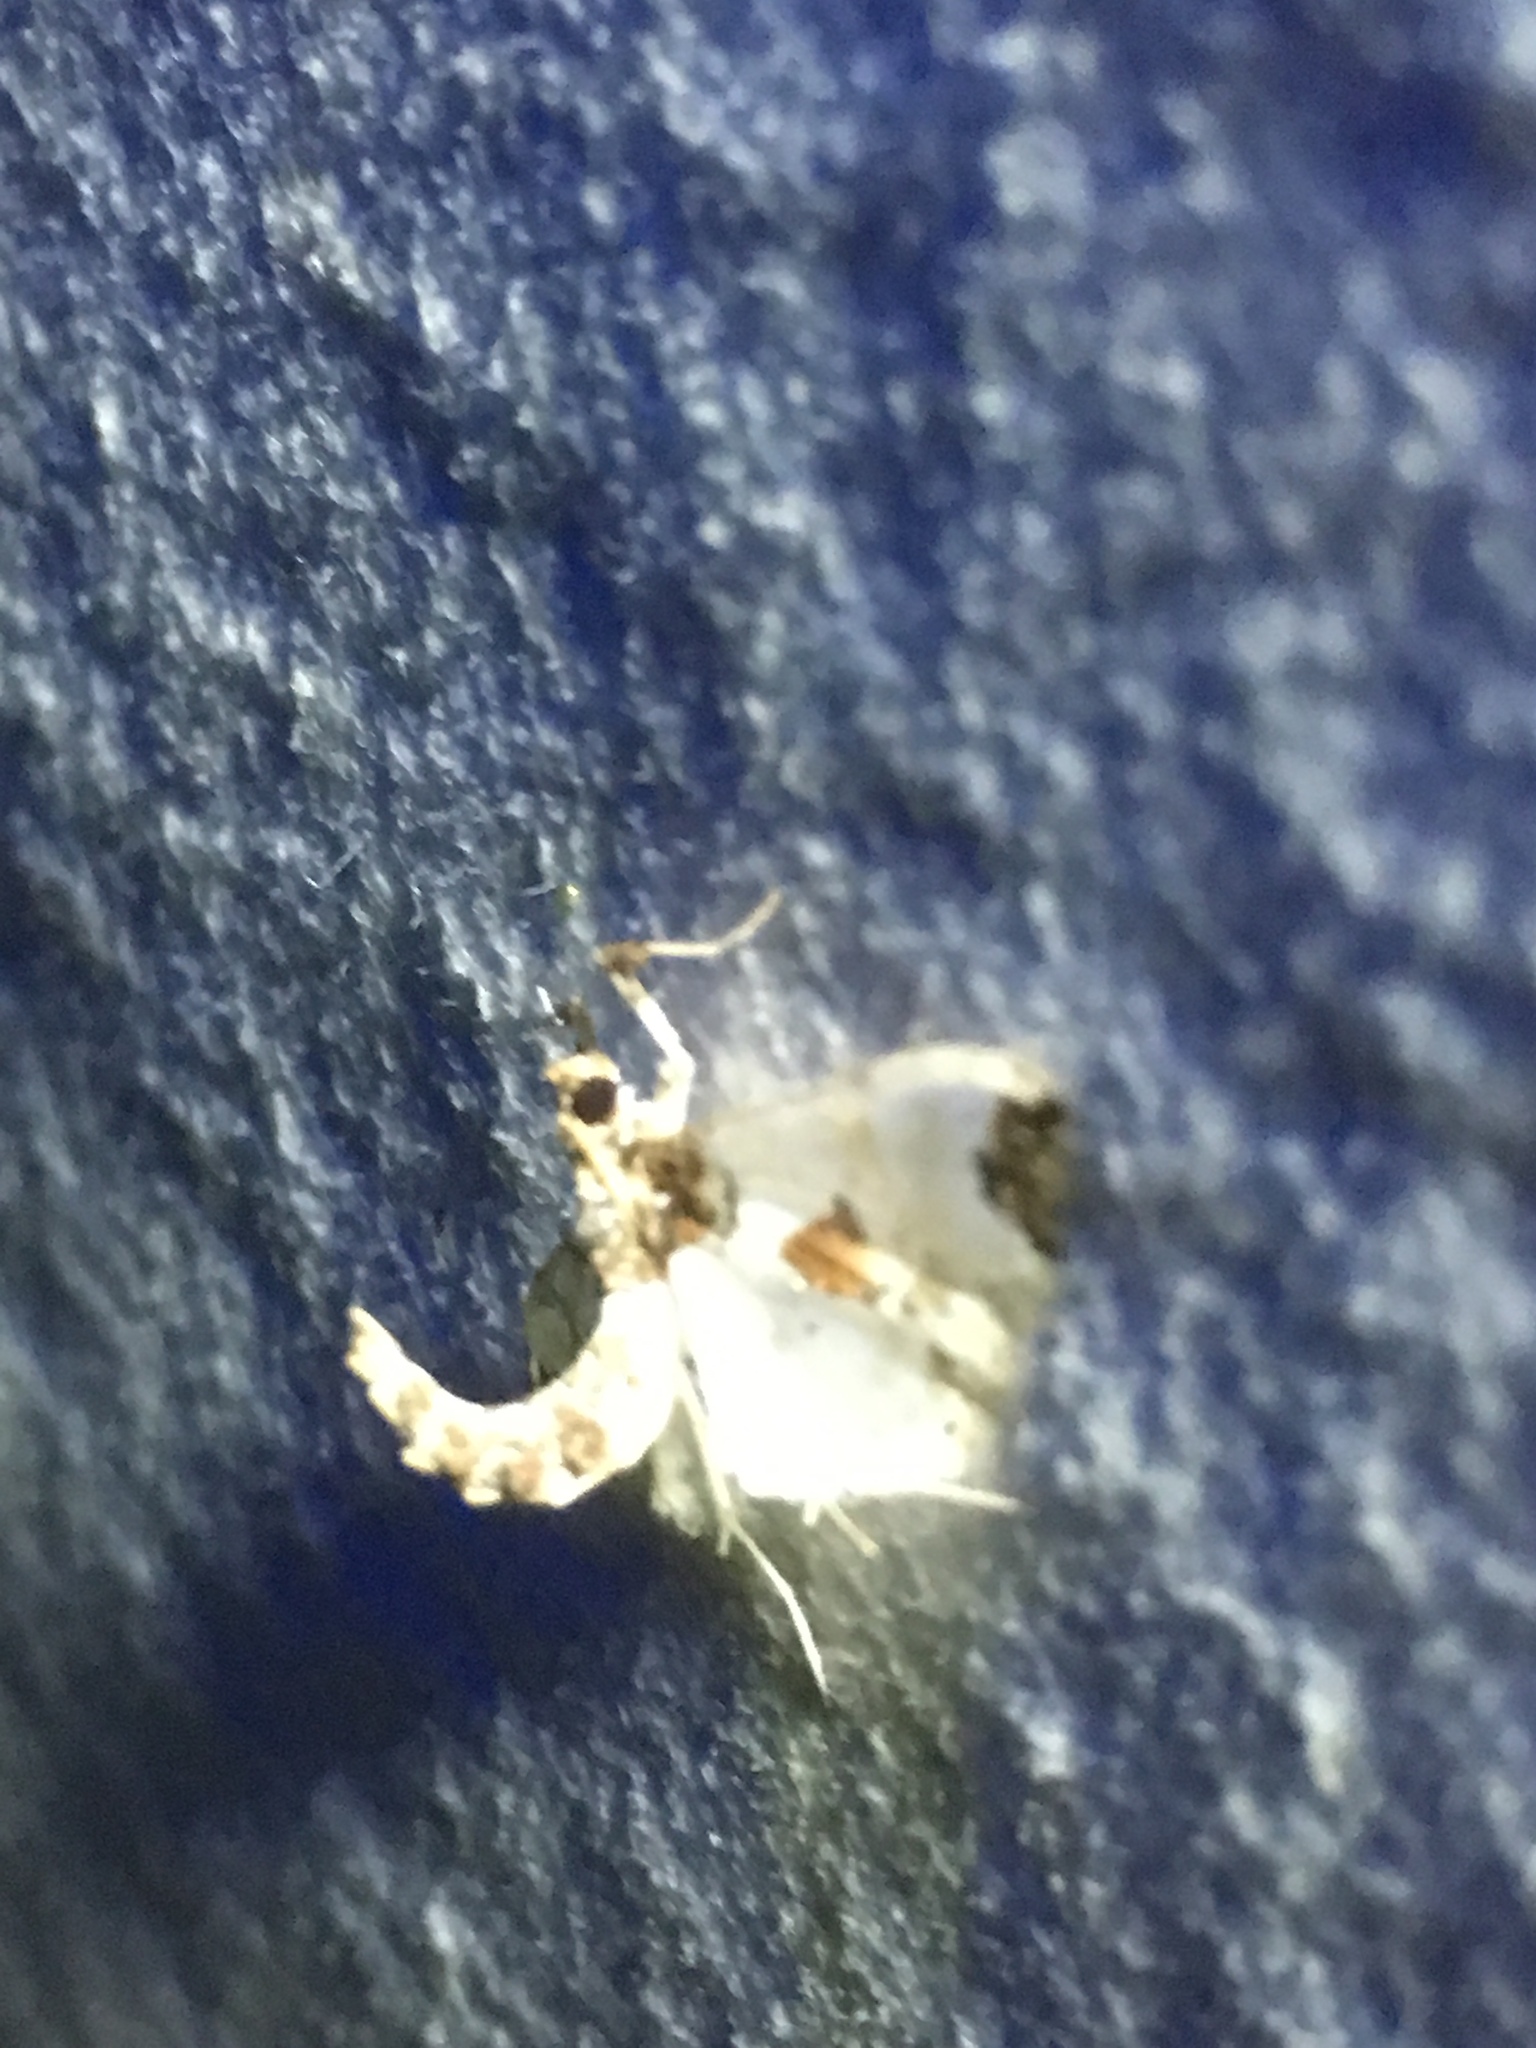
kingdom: Animalia
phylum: Arthropoda
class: Insecta
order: Lepidoptera
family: Crambidae
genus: Neoleucinodes
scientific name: Neoleucinodes elegantalis
